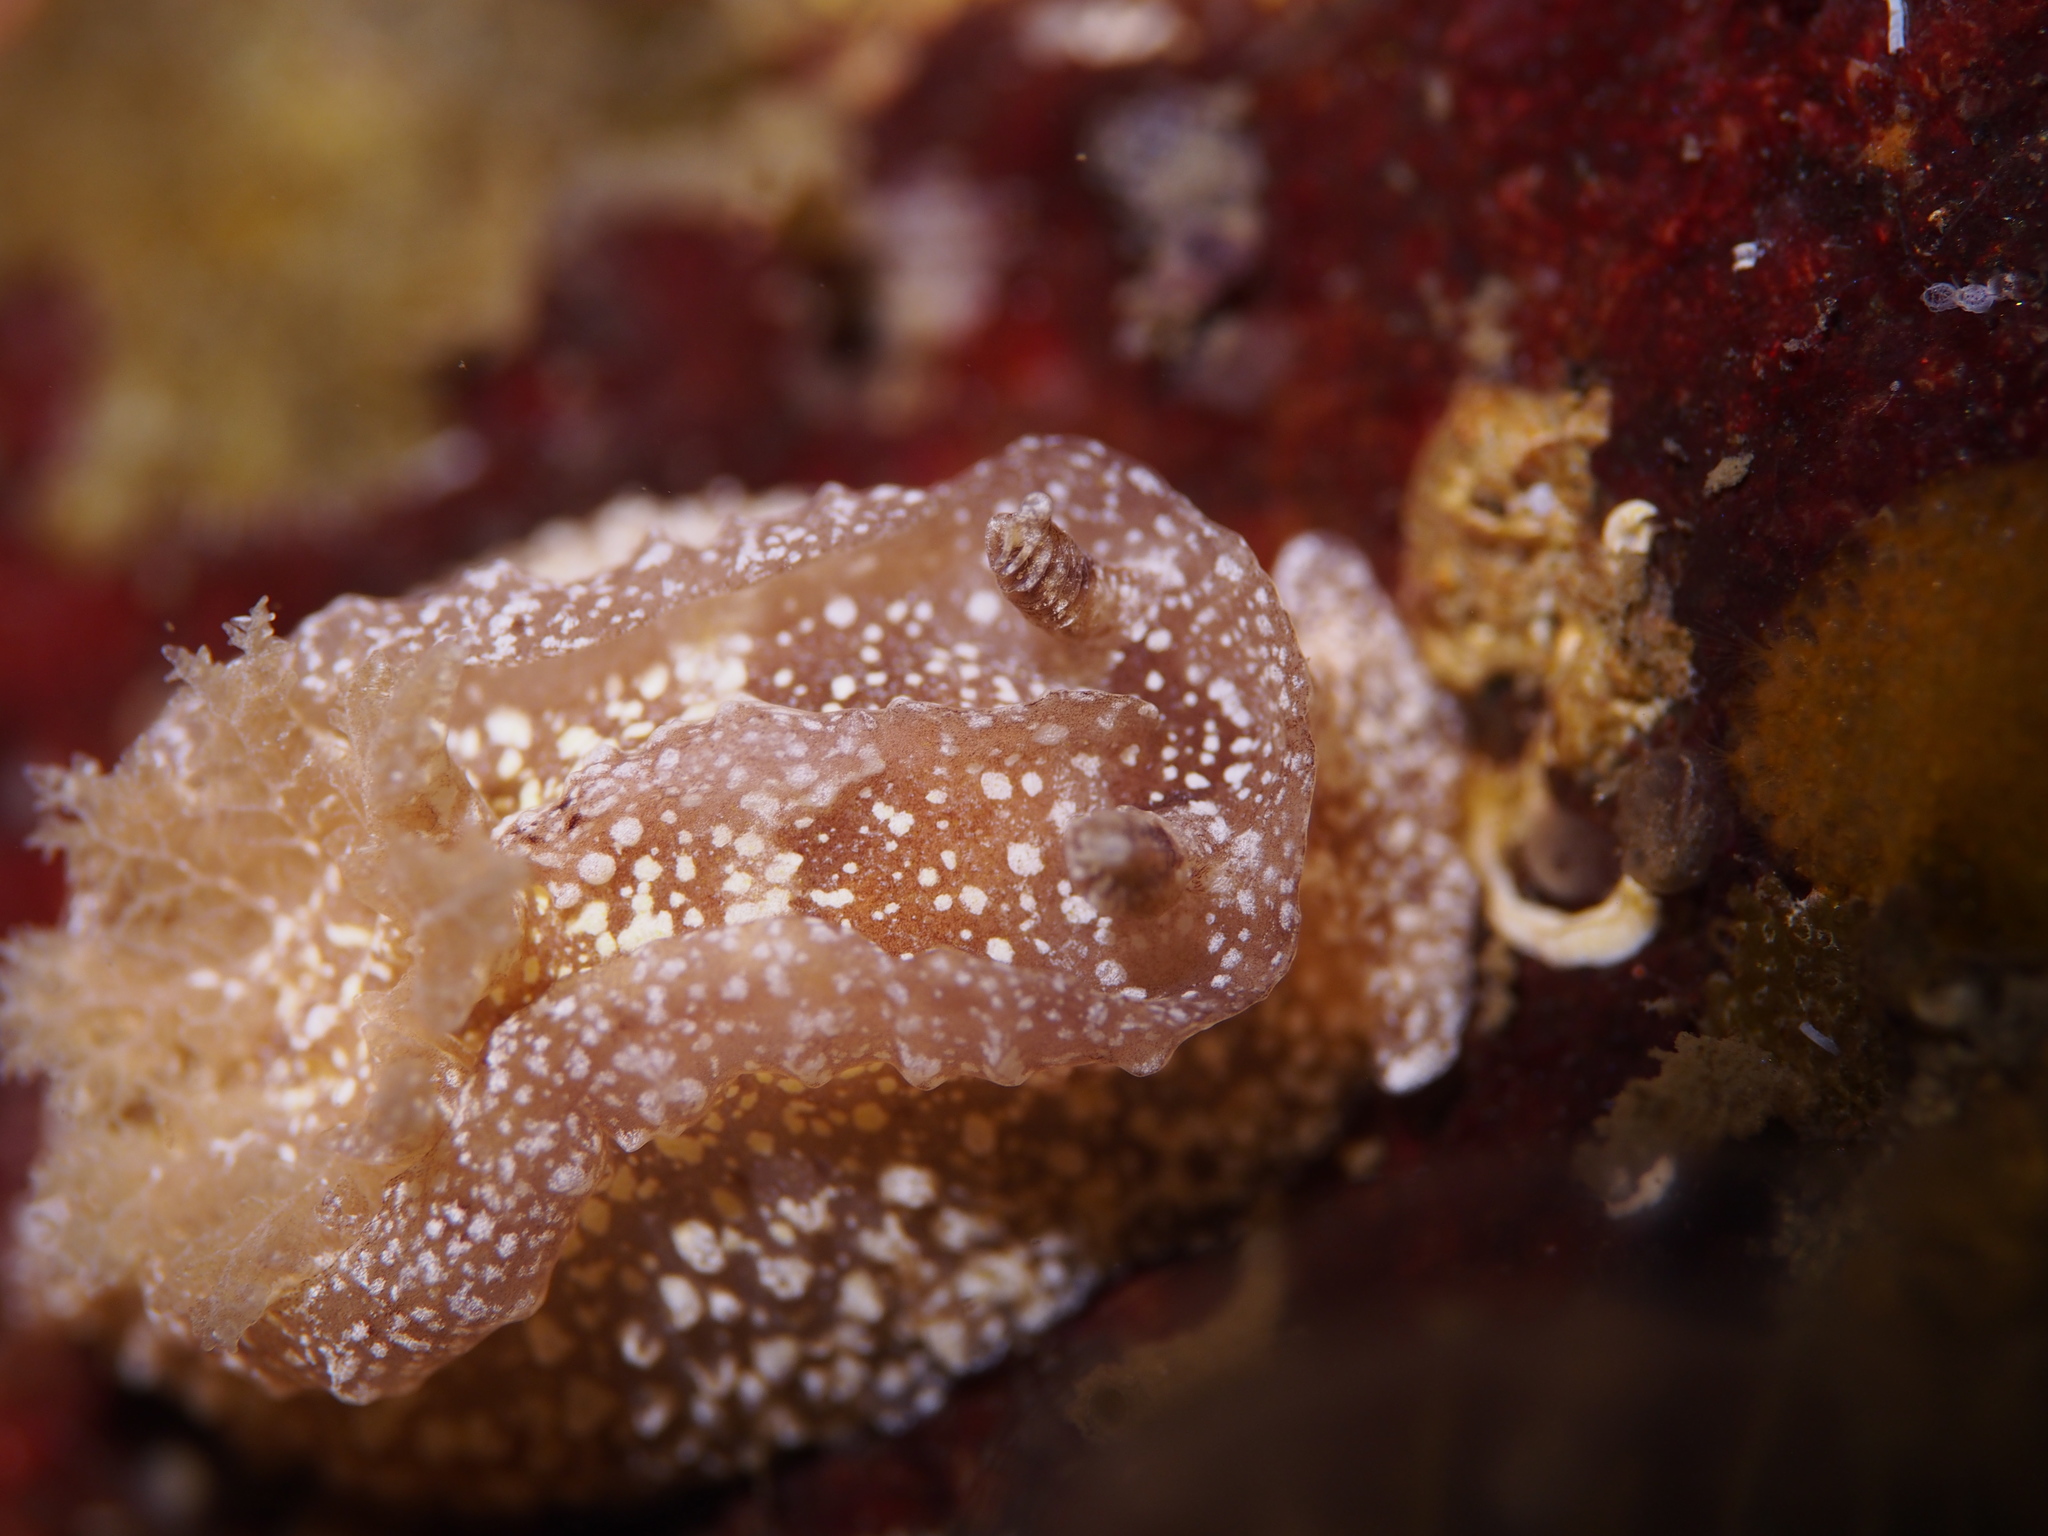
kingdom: Animalia
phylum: Mollusca
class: Gastropoda
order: Nudibranchia
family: Goniodorididae
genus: Pelagella
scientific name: Pelagella castanea
